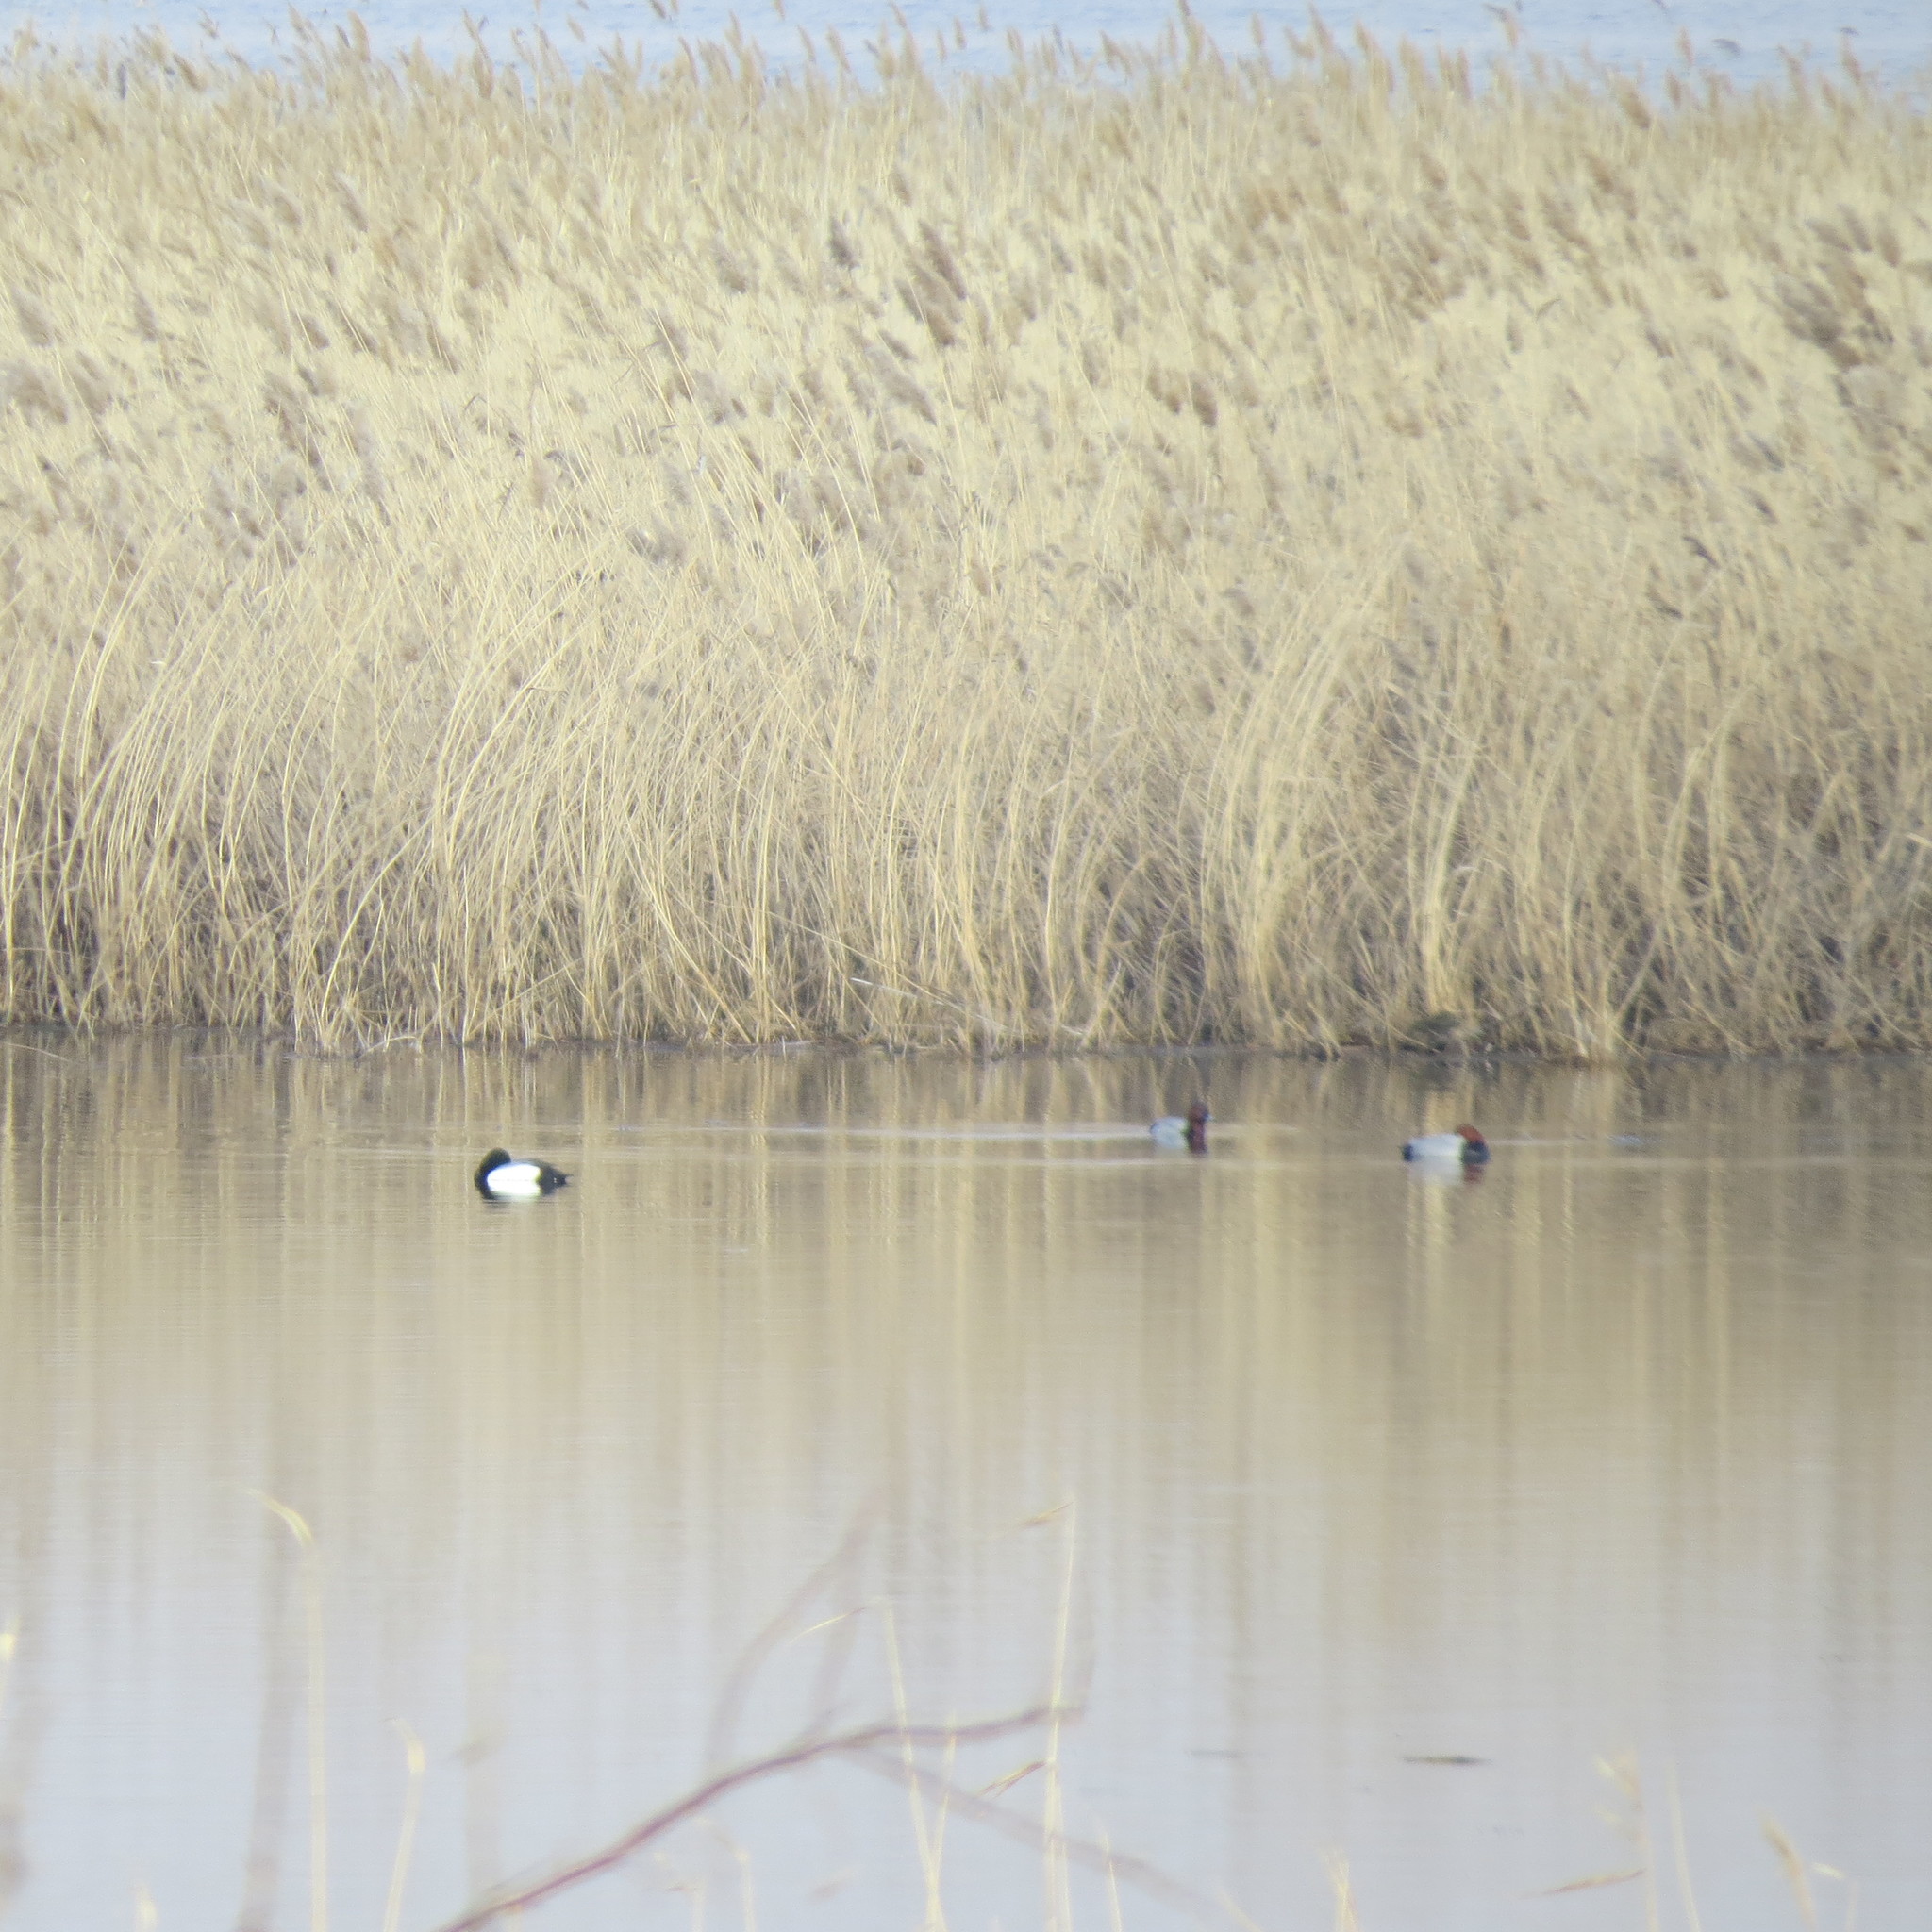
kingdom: Animalia
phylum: Chordata
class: Aves
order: Anseriformes
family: Anatidae
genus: Aythya
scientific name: Aythya fuligula
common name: Tufted duck
